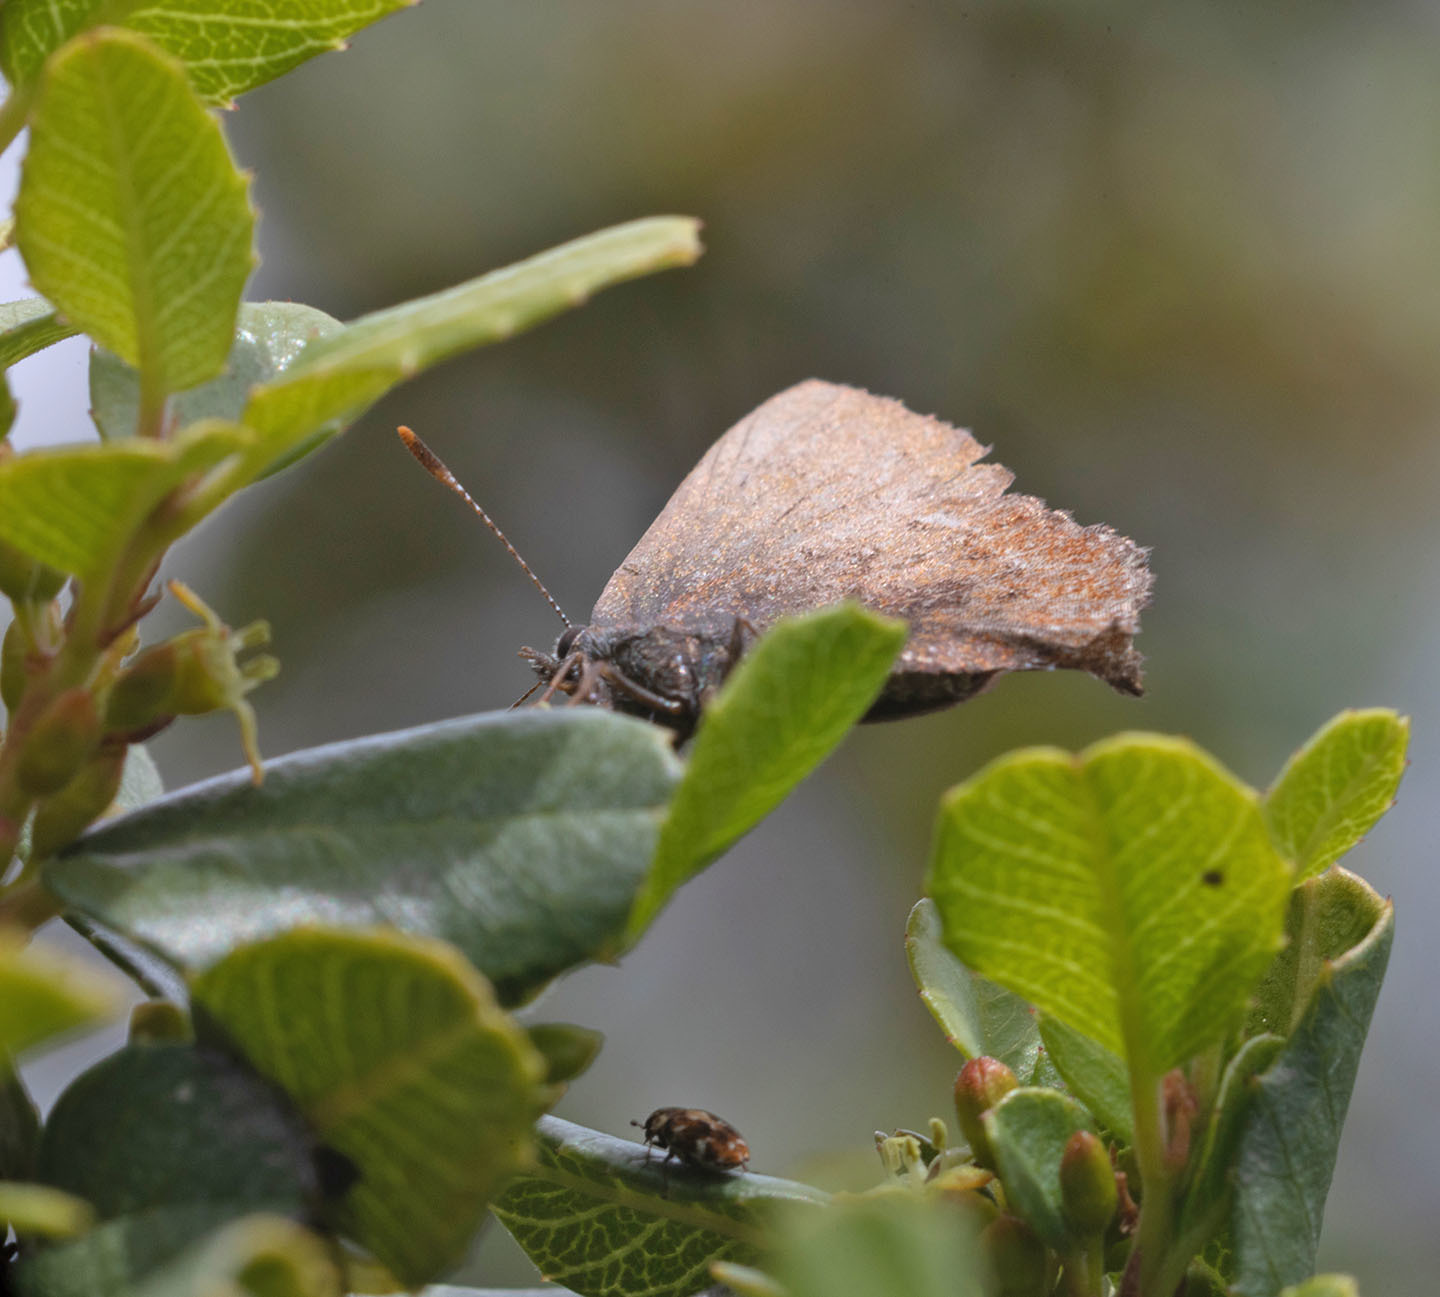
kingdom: Animalia
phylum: Arthropoda
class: Insecta
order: Lepidoptera
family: Lycaenidae
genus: Incisalia
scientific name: Incisalia irioides
